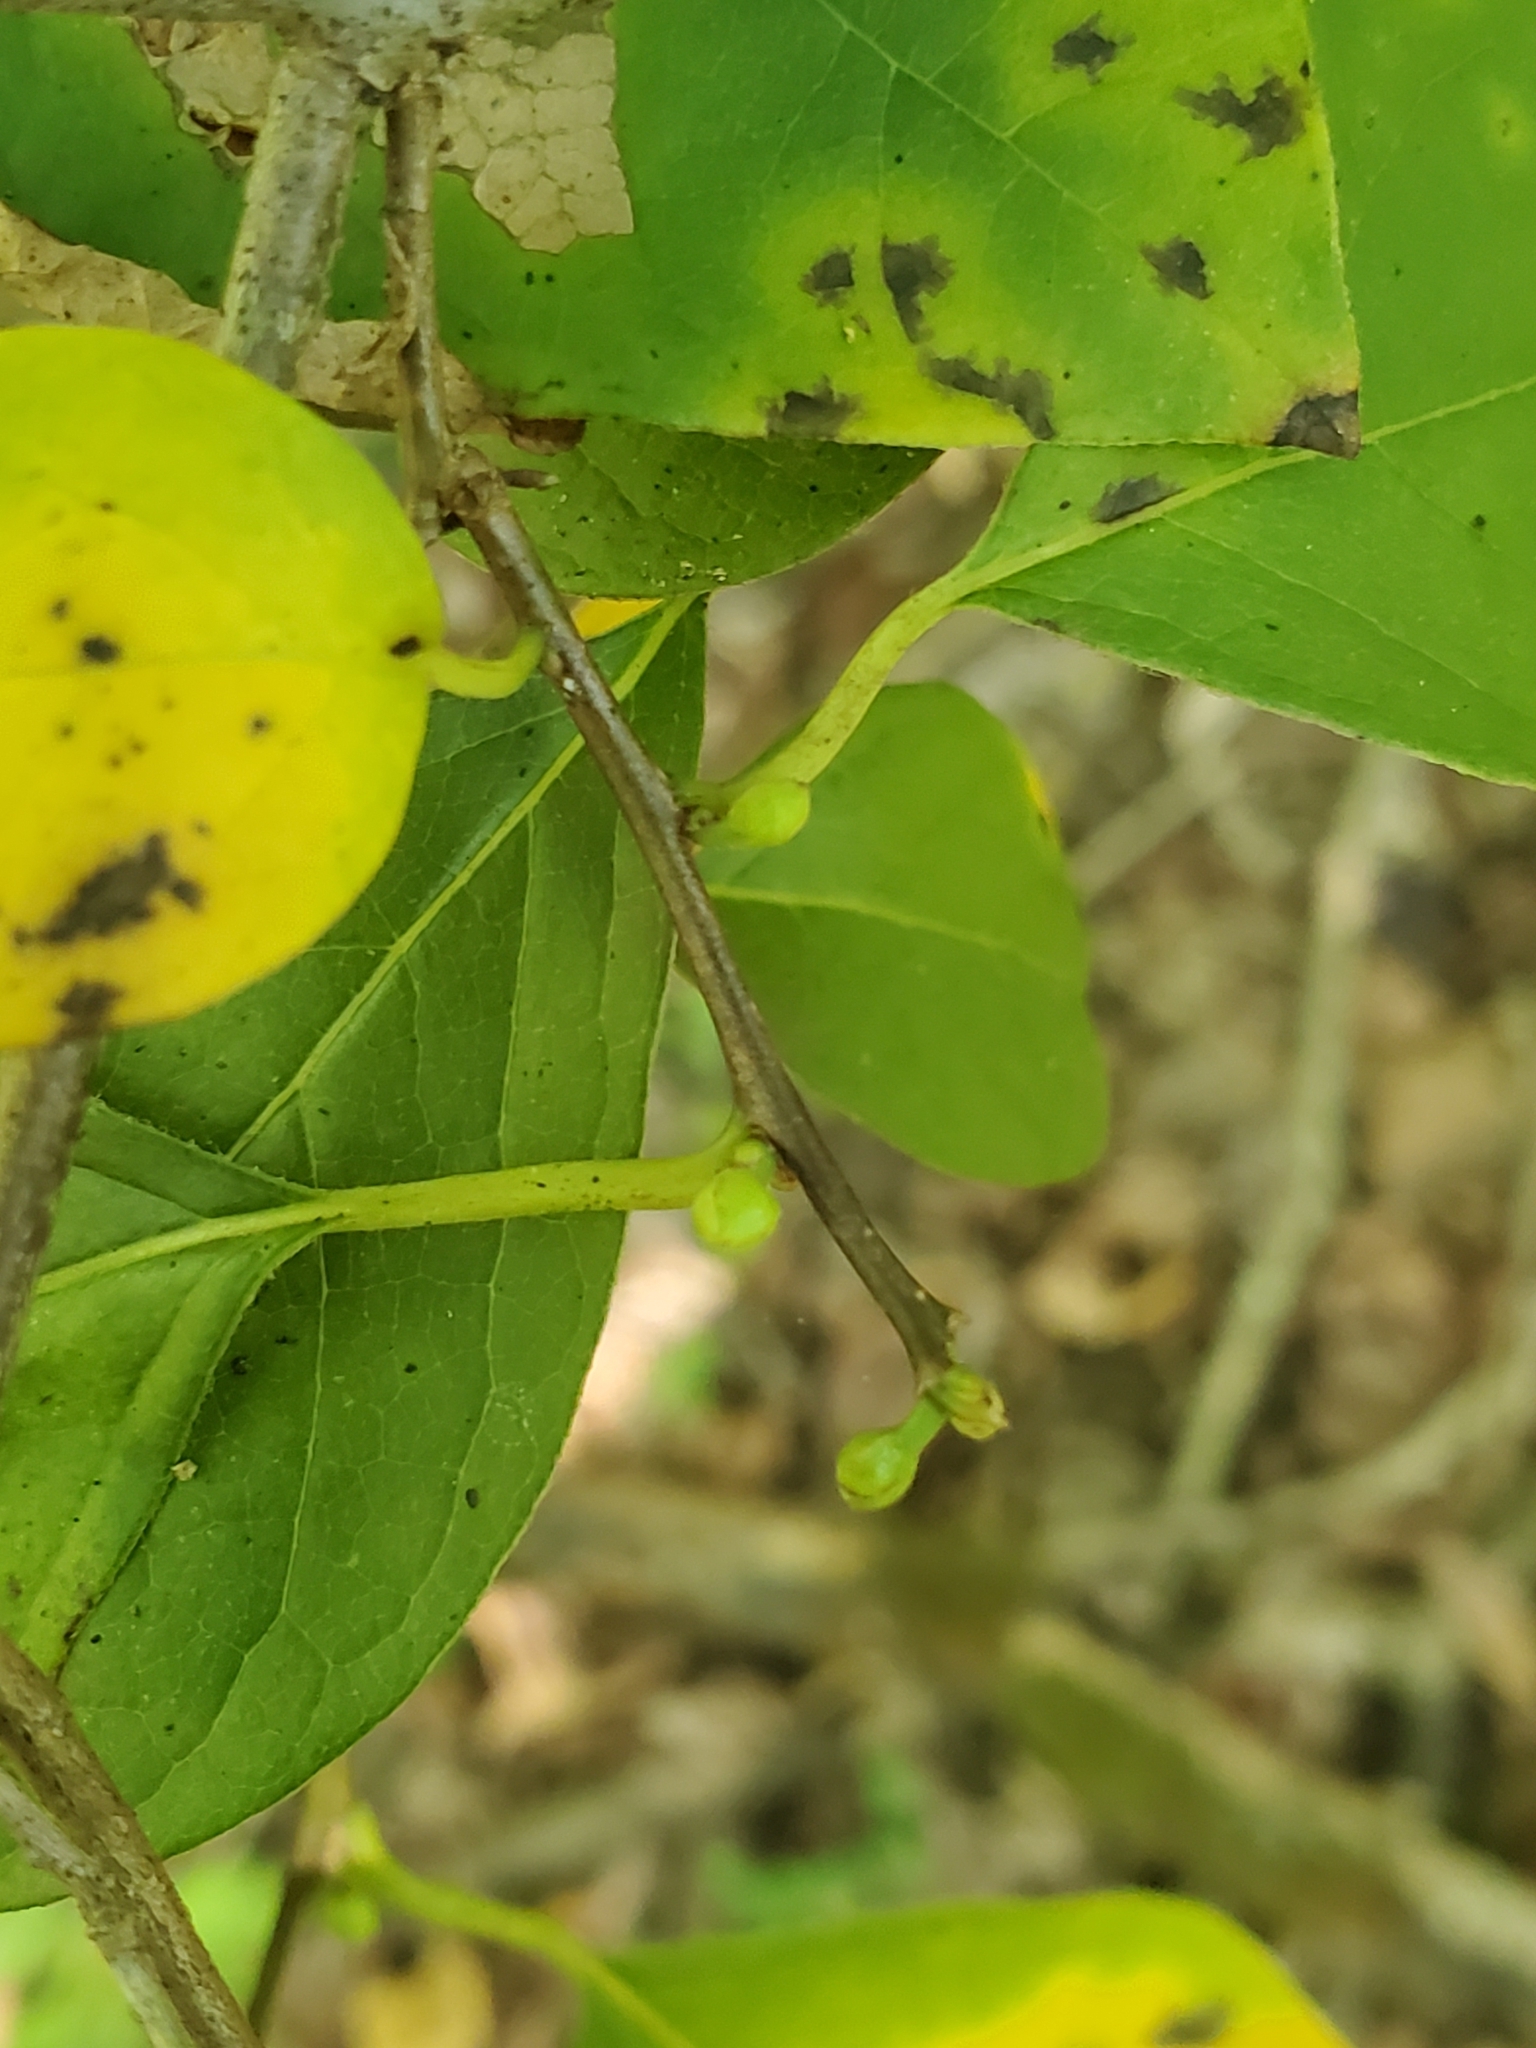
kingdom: Plantae
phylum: Tracheophyta
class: Magnoliopsida
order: Laurales
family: Lauraceae
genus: Lindera
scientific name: Lindera benzoin
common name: Spicebush
